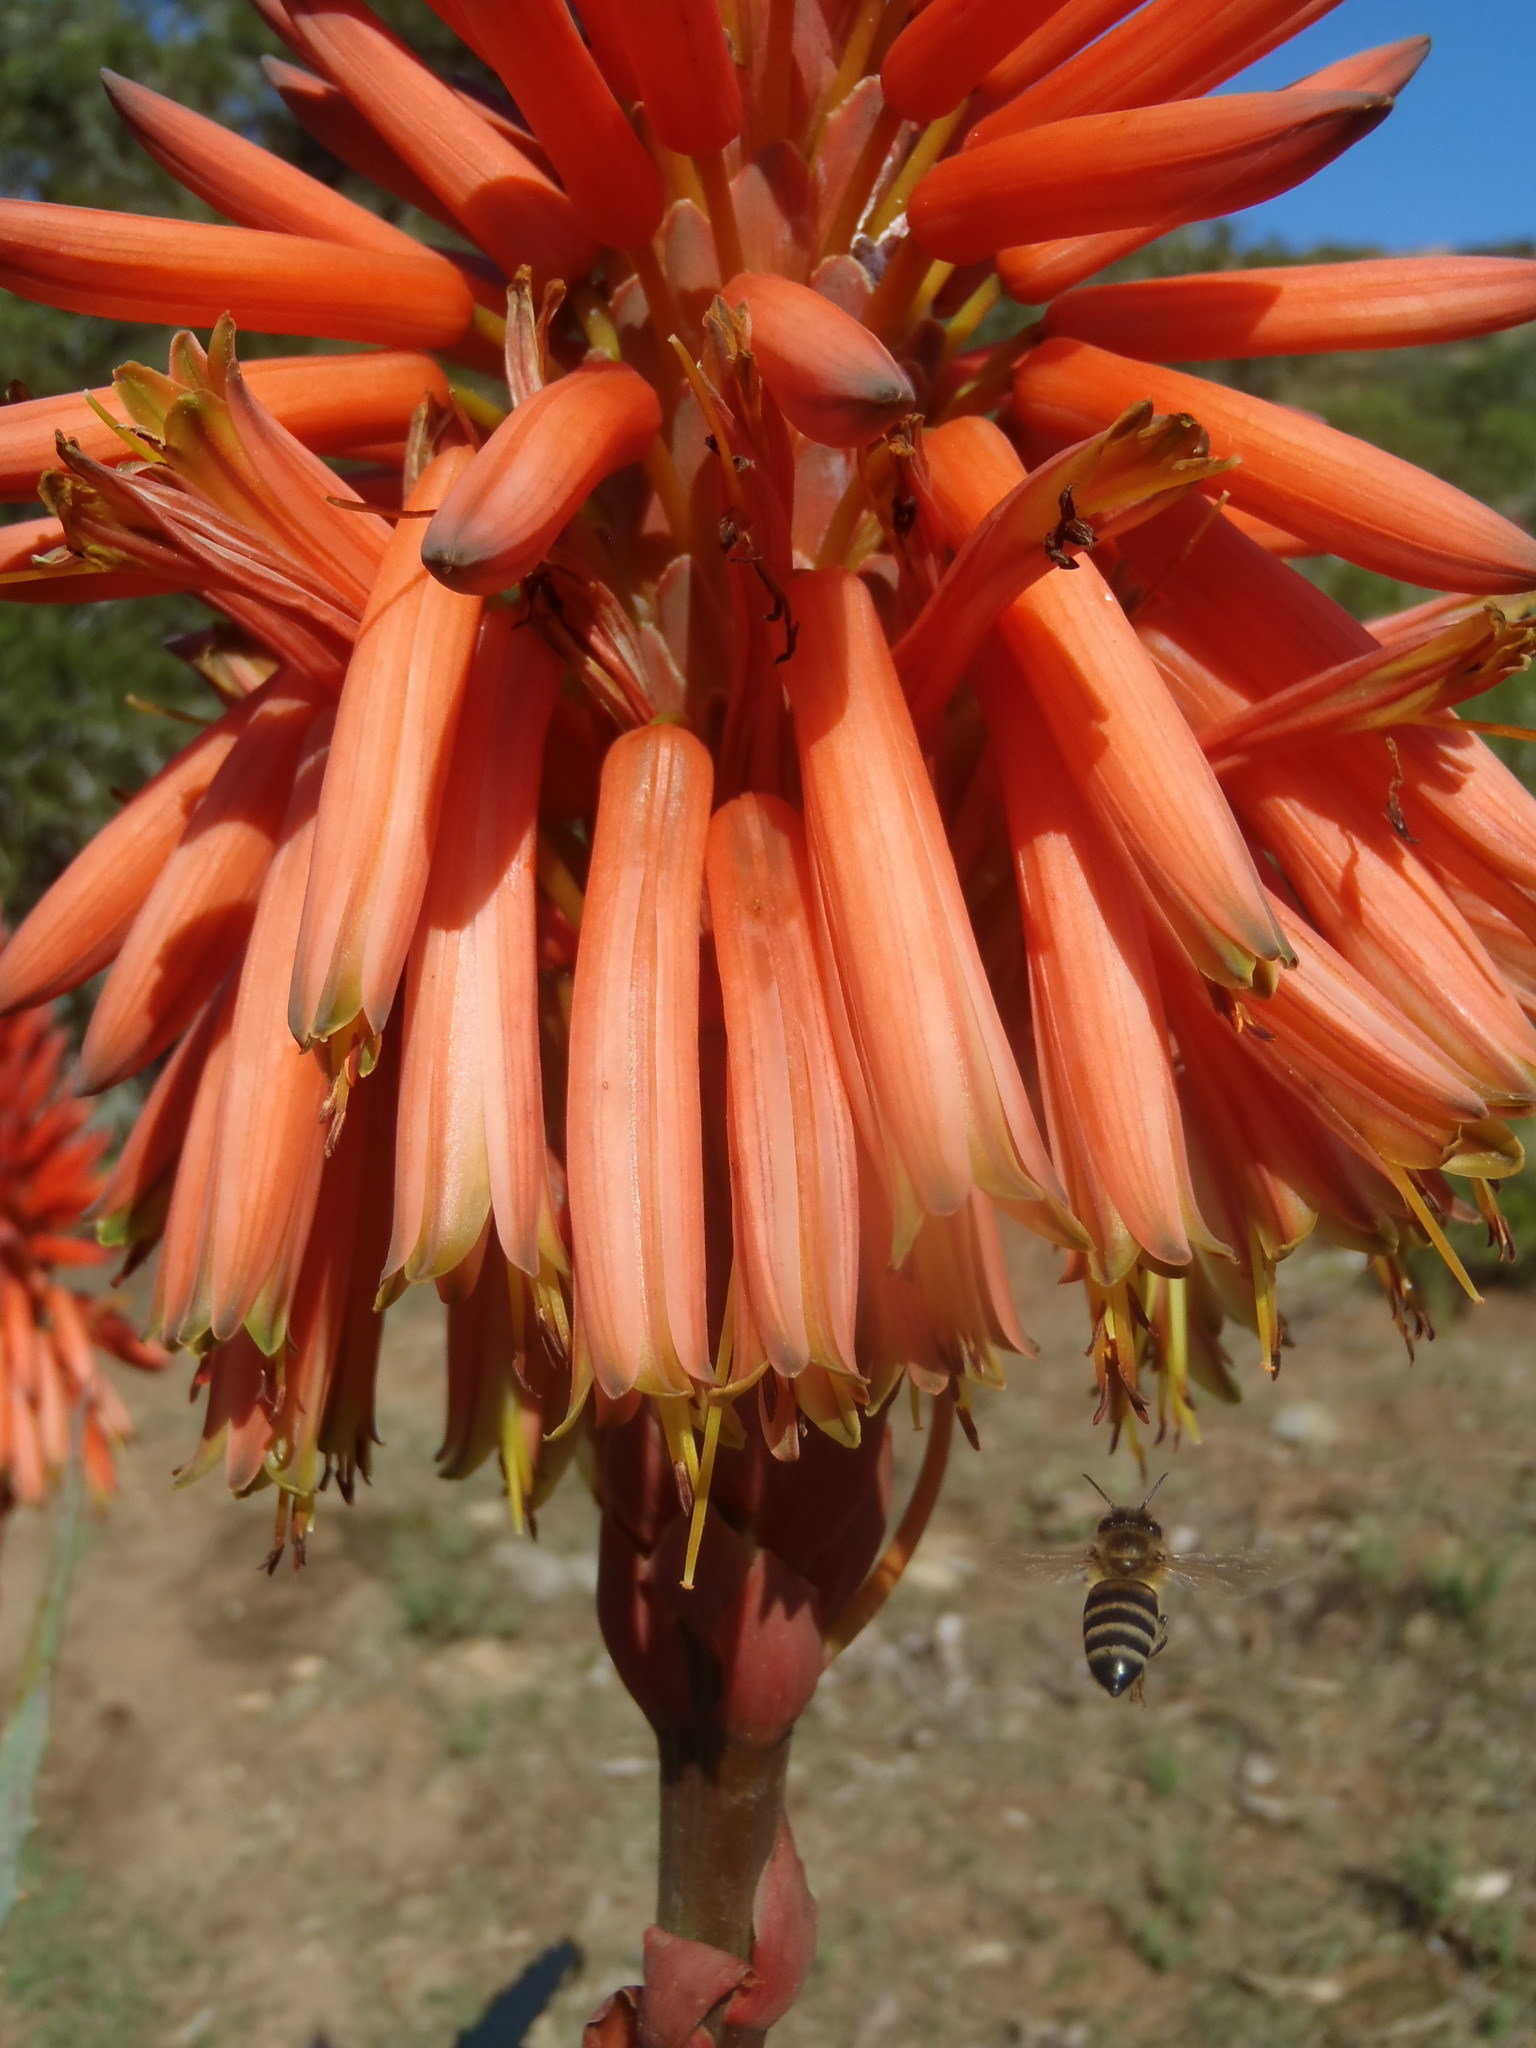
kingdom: Animalia
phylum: Arthropoda
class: Insecta
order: Hymenoptera
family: Apidae
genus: Apis
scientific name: Apis mellifera
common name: Honey bee
